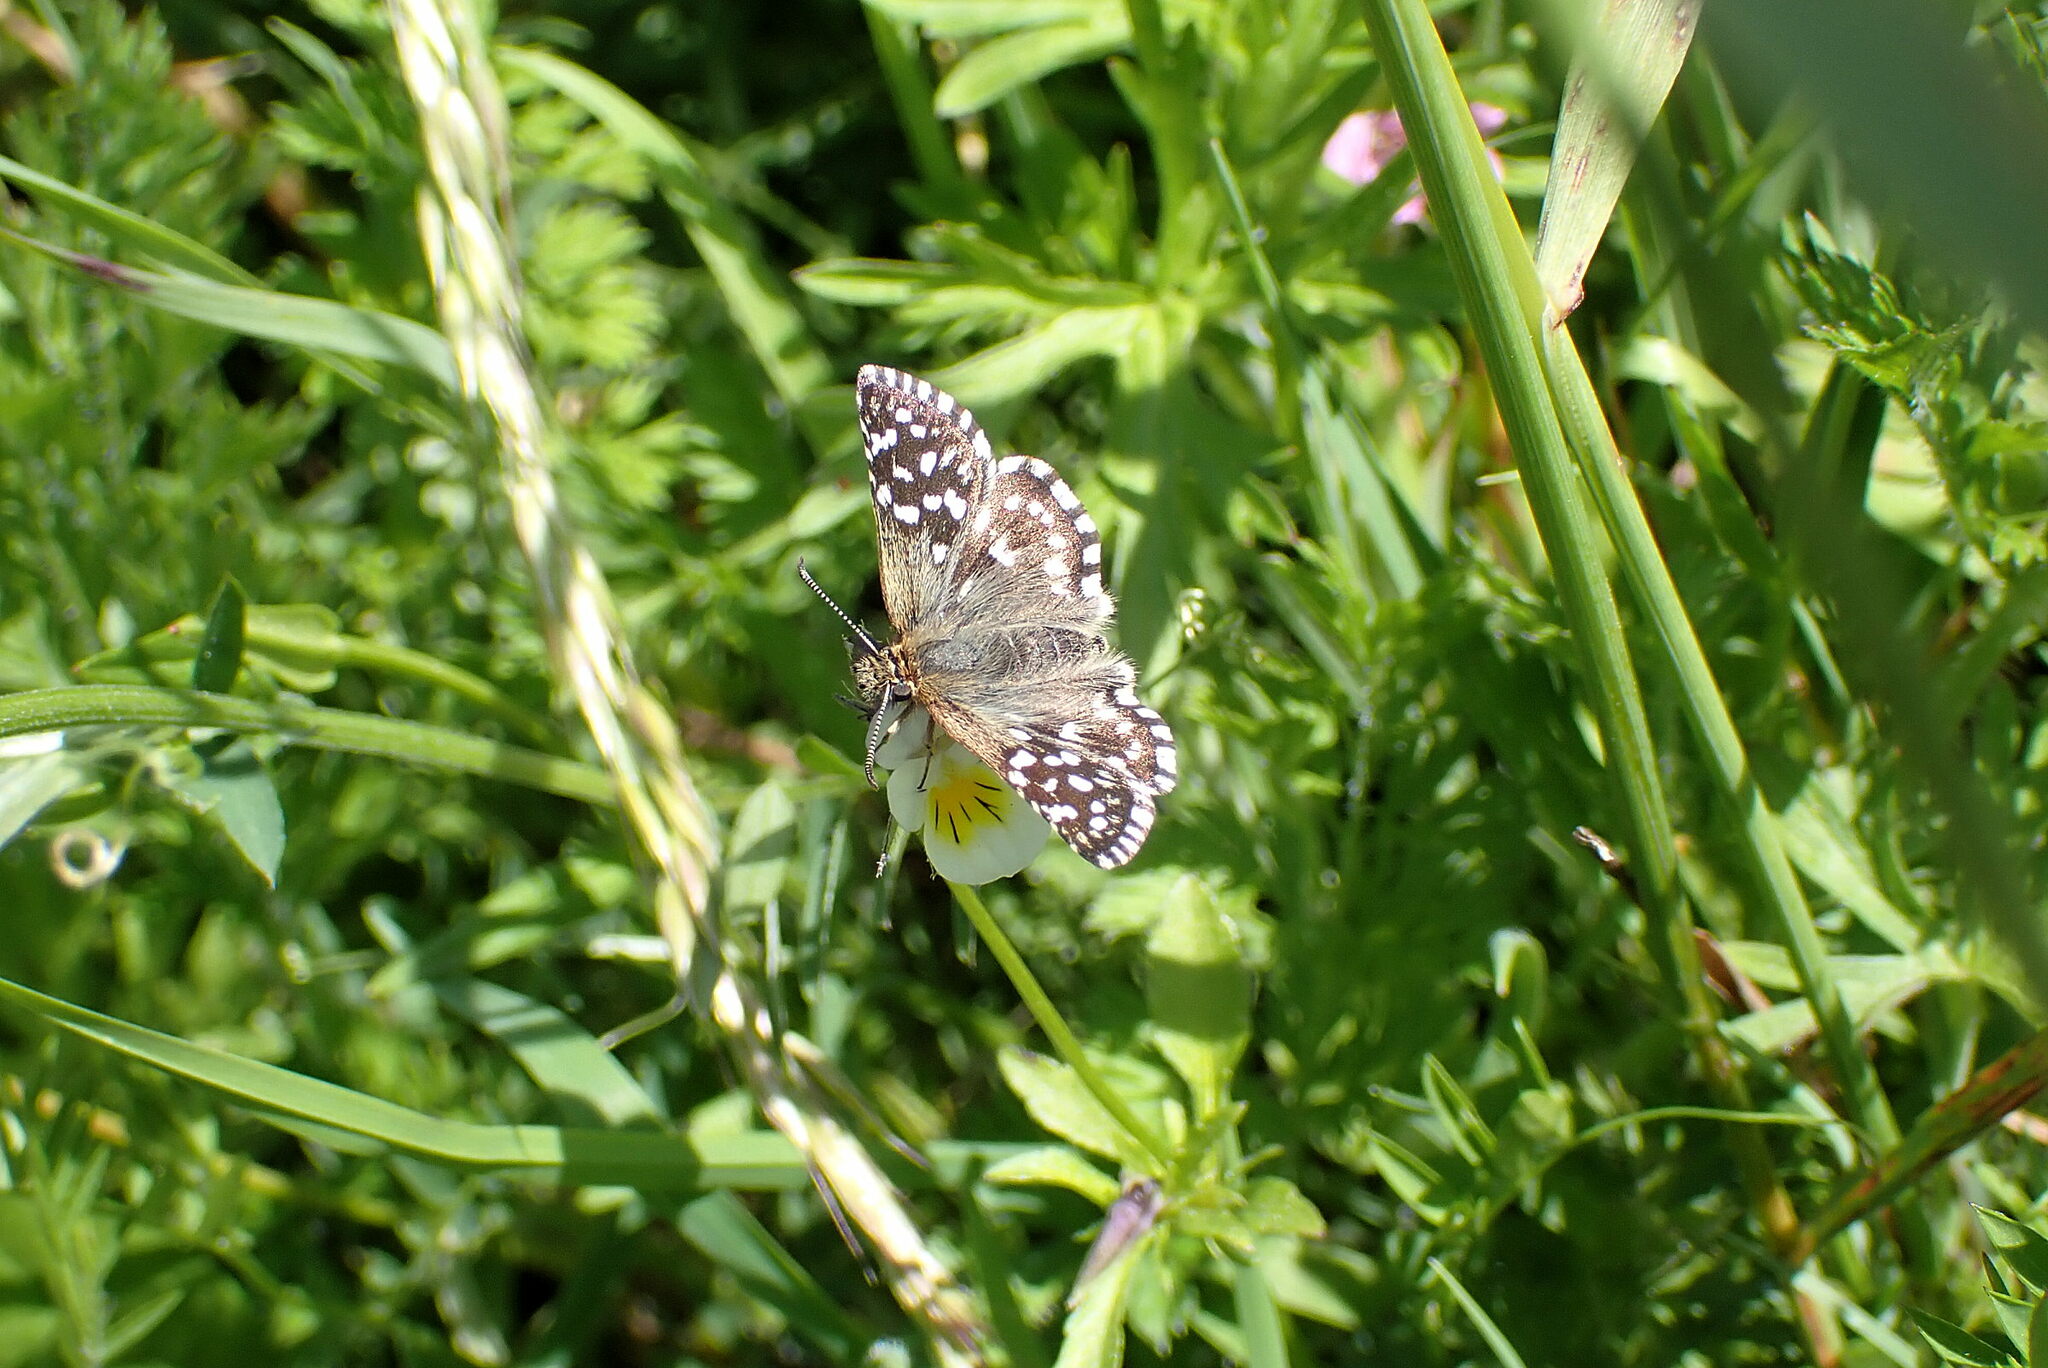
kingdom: Animalia
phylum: Arthropoda
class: Insecta
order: Lepidoptera
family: Hesperiidae
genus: Pyrgus
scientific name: Pyrgus malvae
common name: Grizzled skipper
